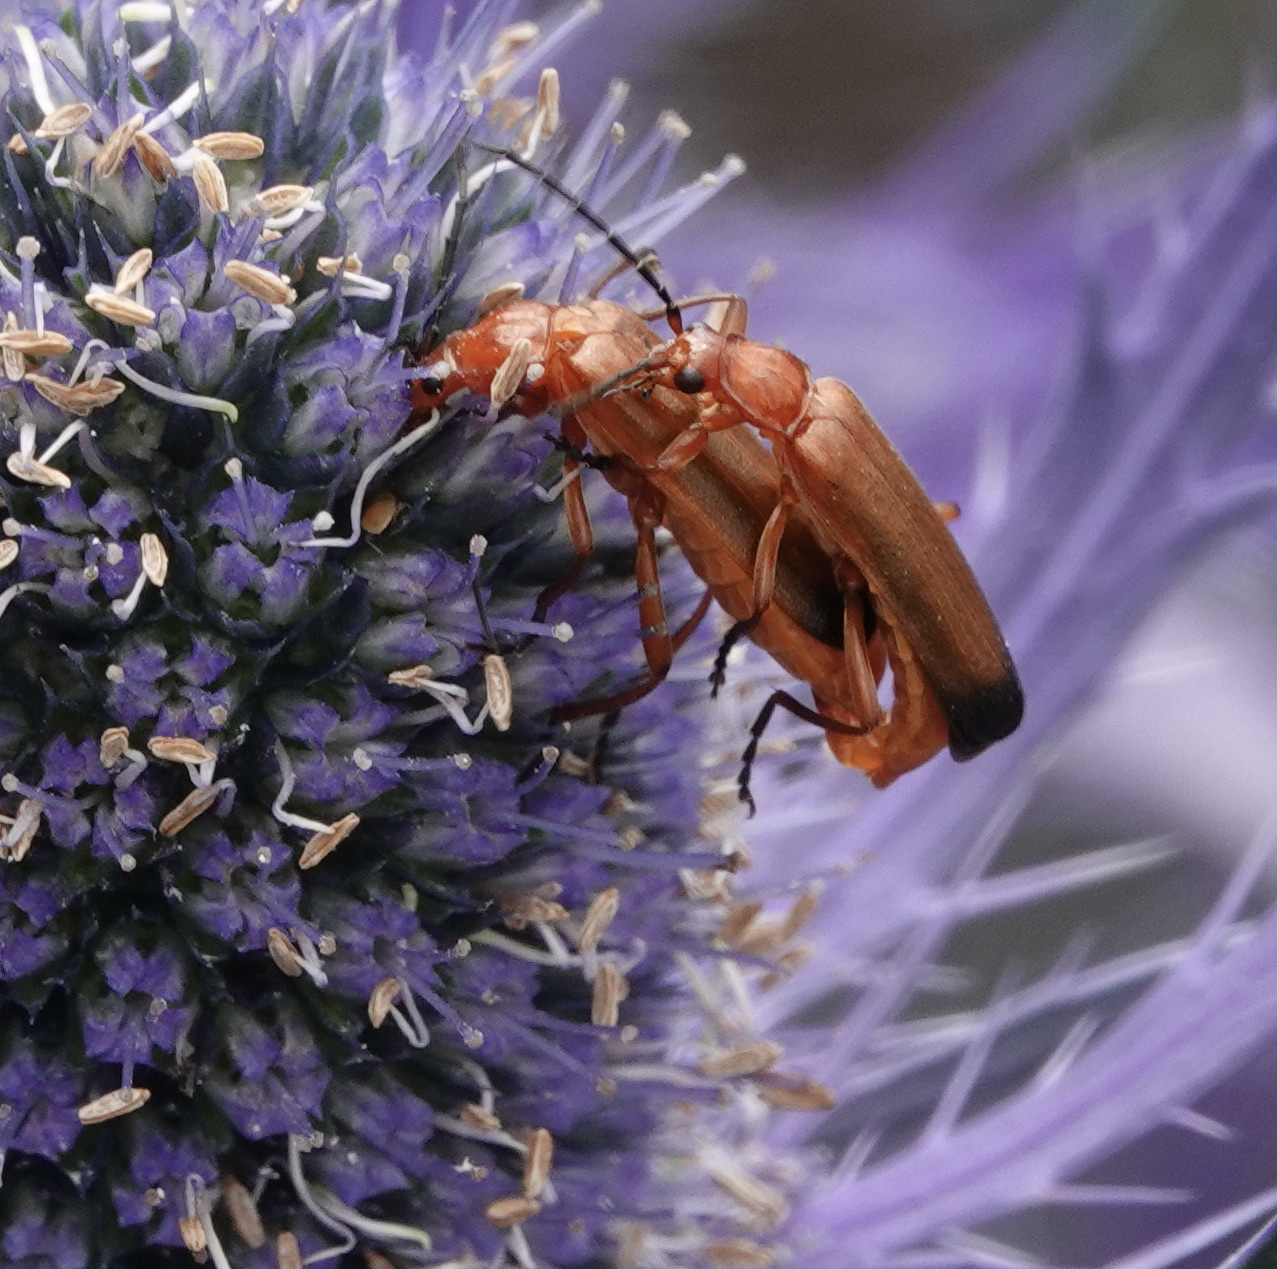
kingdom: Animalia
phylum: Arthropoda
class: Insecta
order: Coleoptera
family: Cantharidae
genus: Rhagonycha
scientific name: Rhagonycha fulva
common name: Common red soldier beetle
